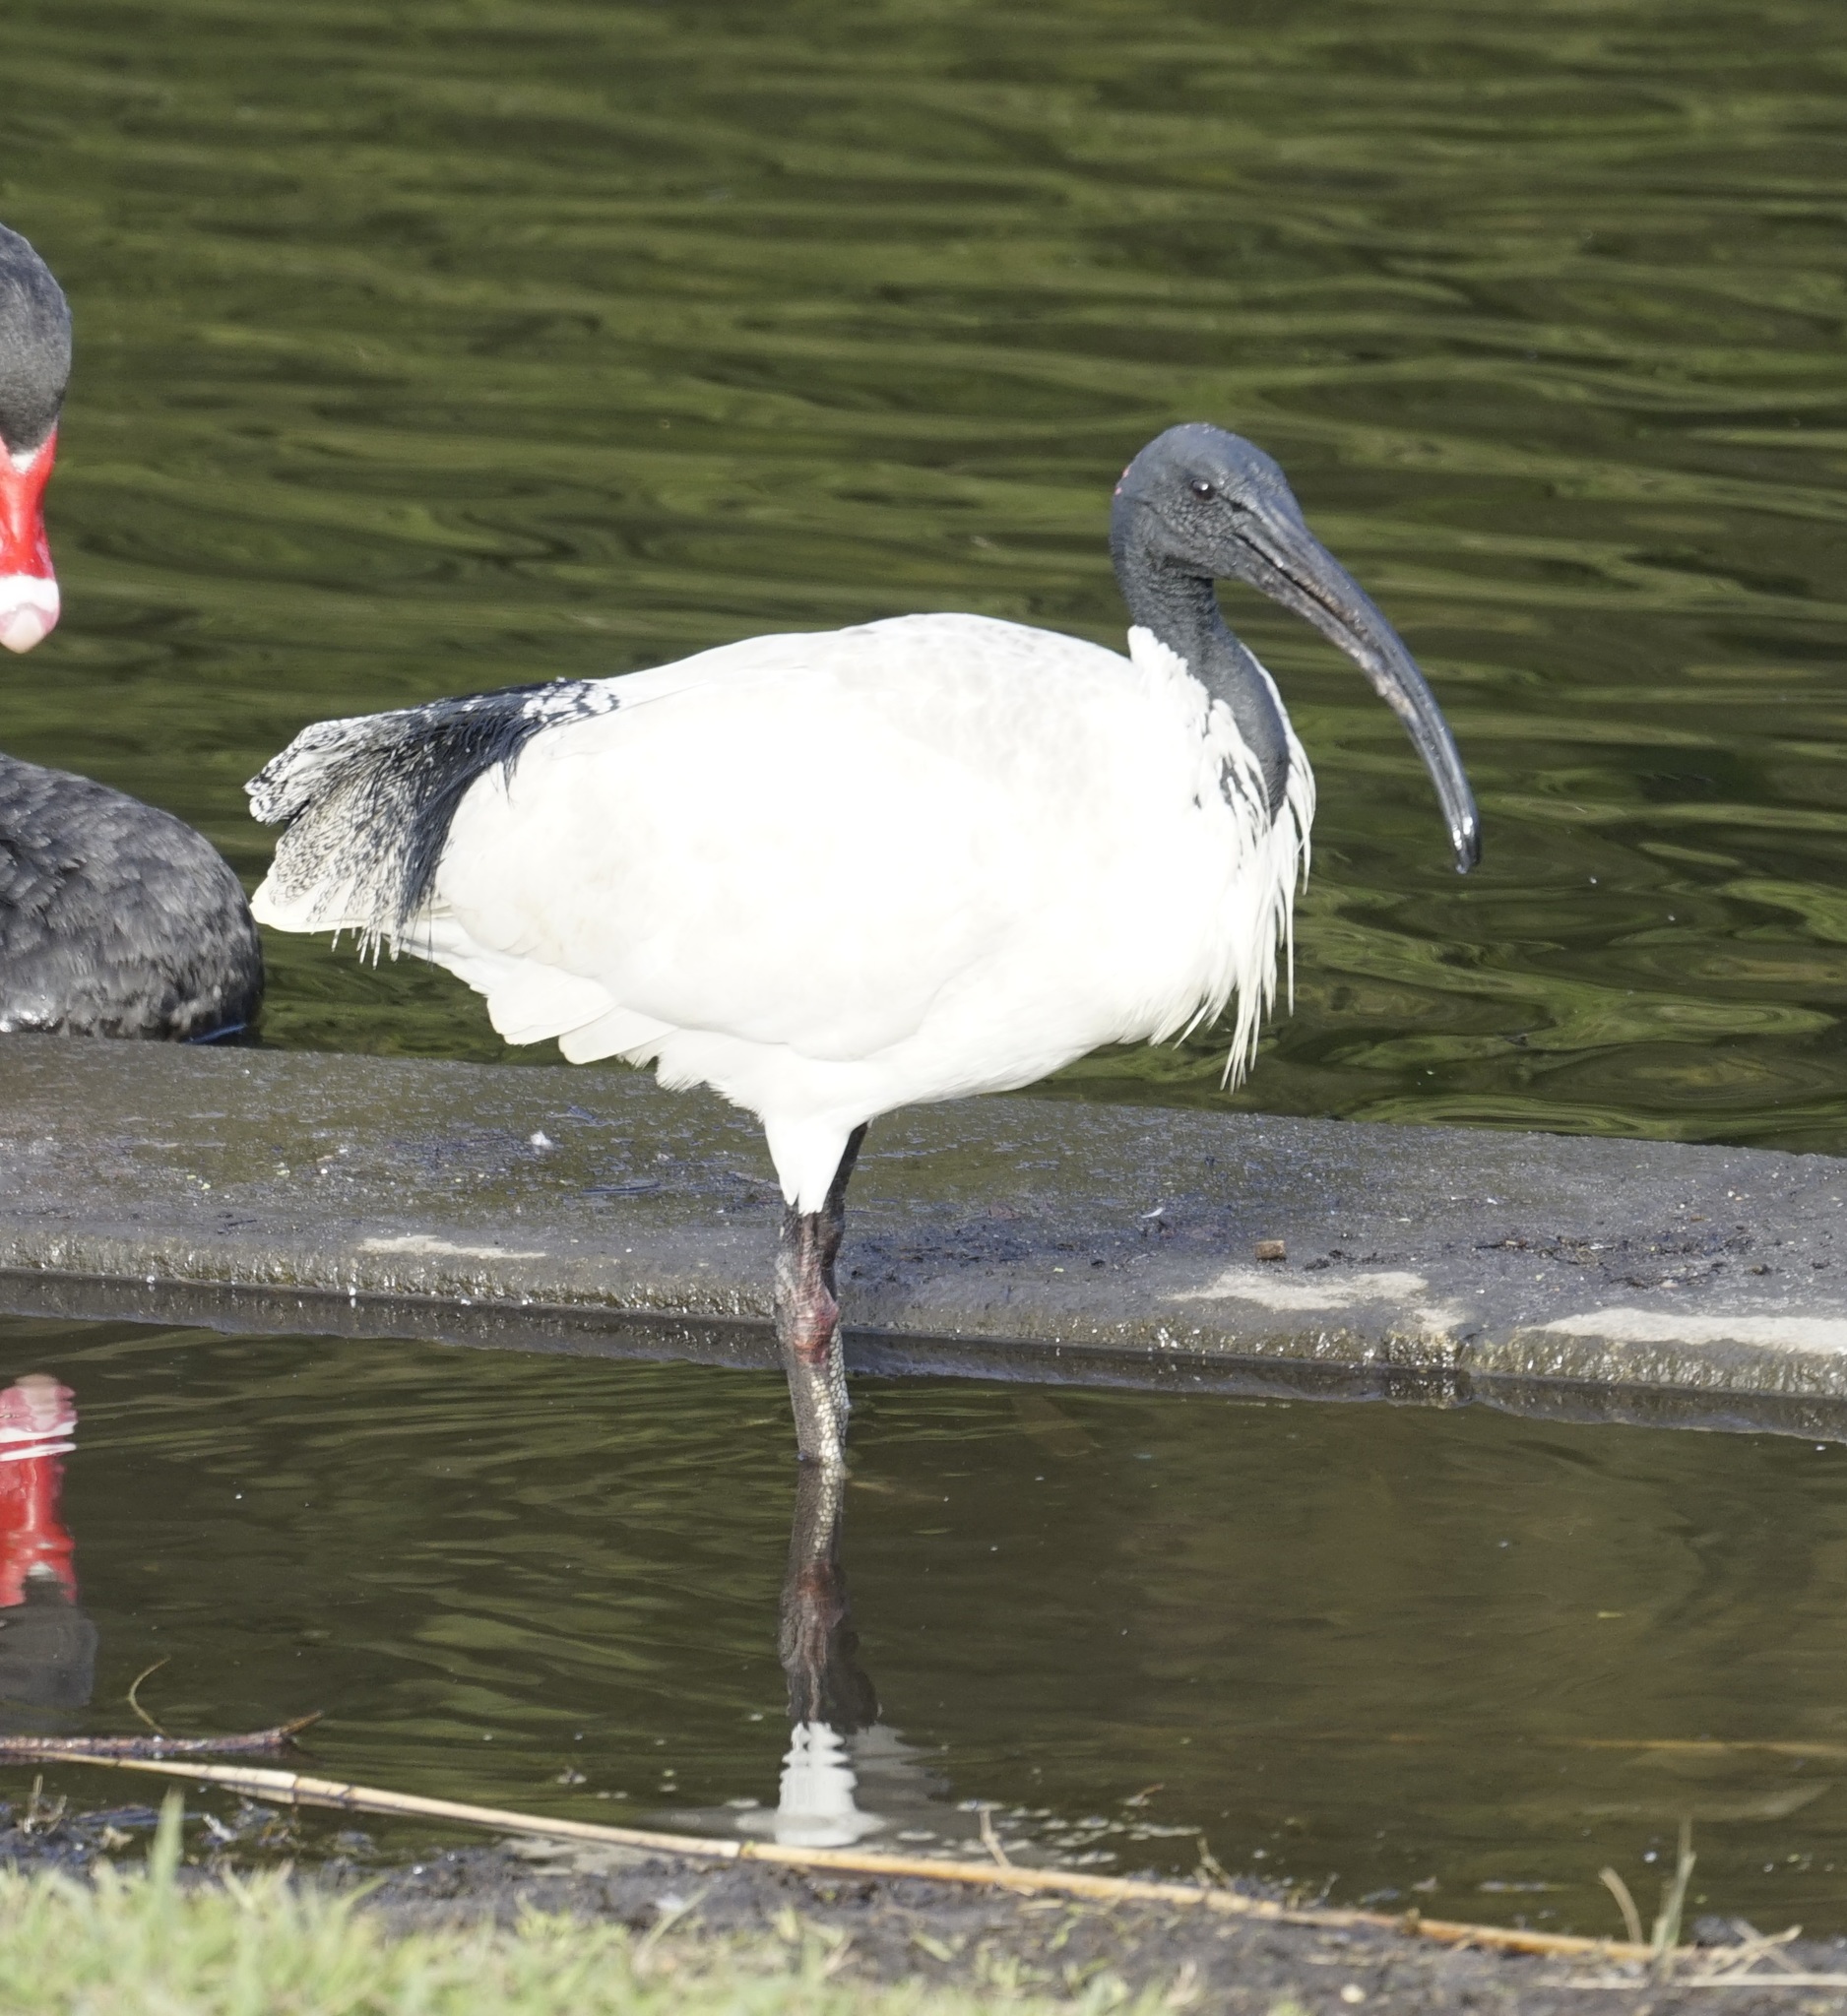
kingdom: Animalia
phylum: Chordata
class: Aves
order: Pelecaniformes
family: Threskiornithidae
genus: Threskiornis
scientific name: Threskiornis molucca
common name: Australian white ibis
